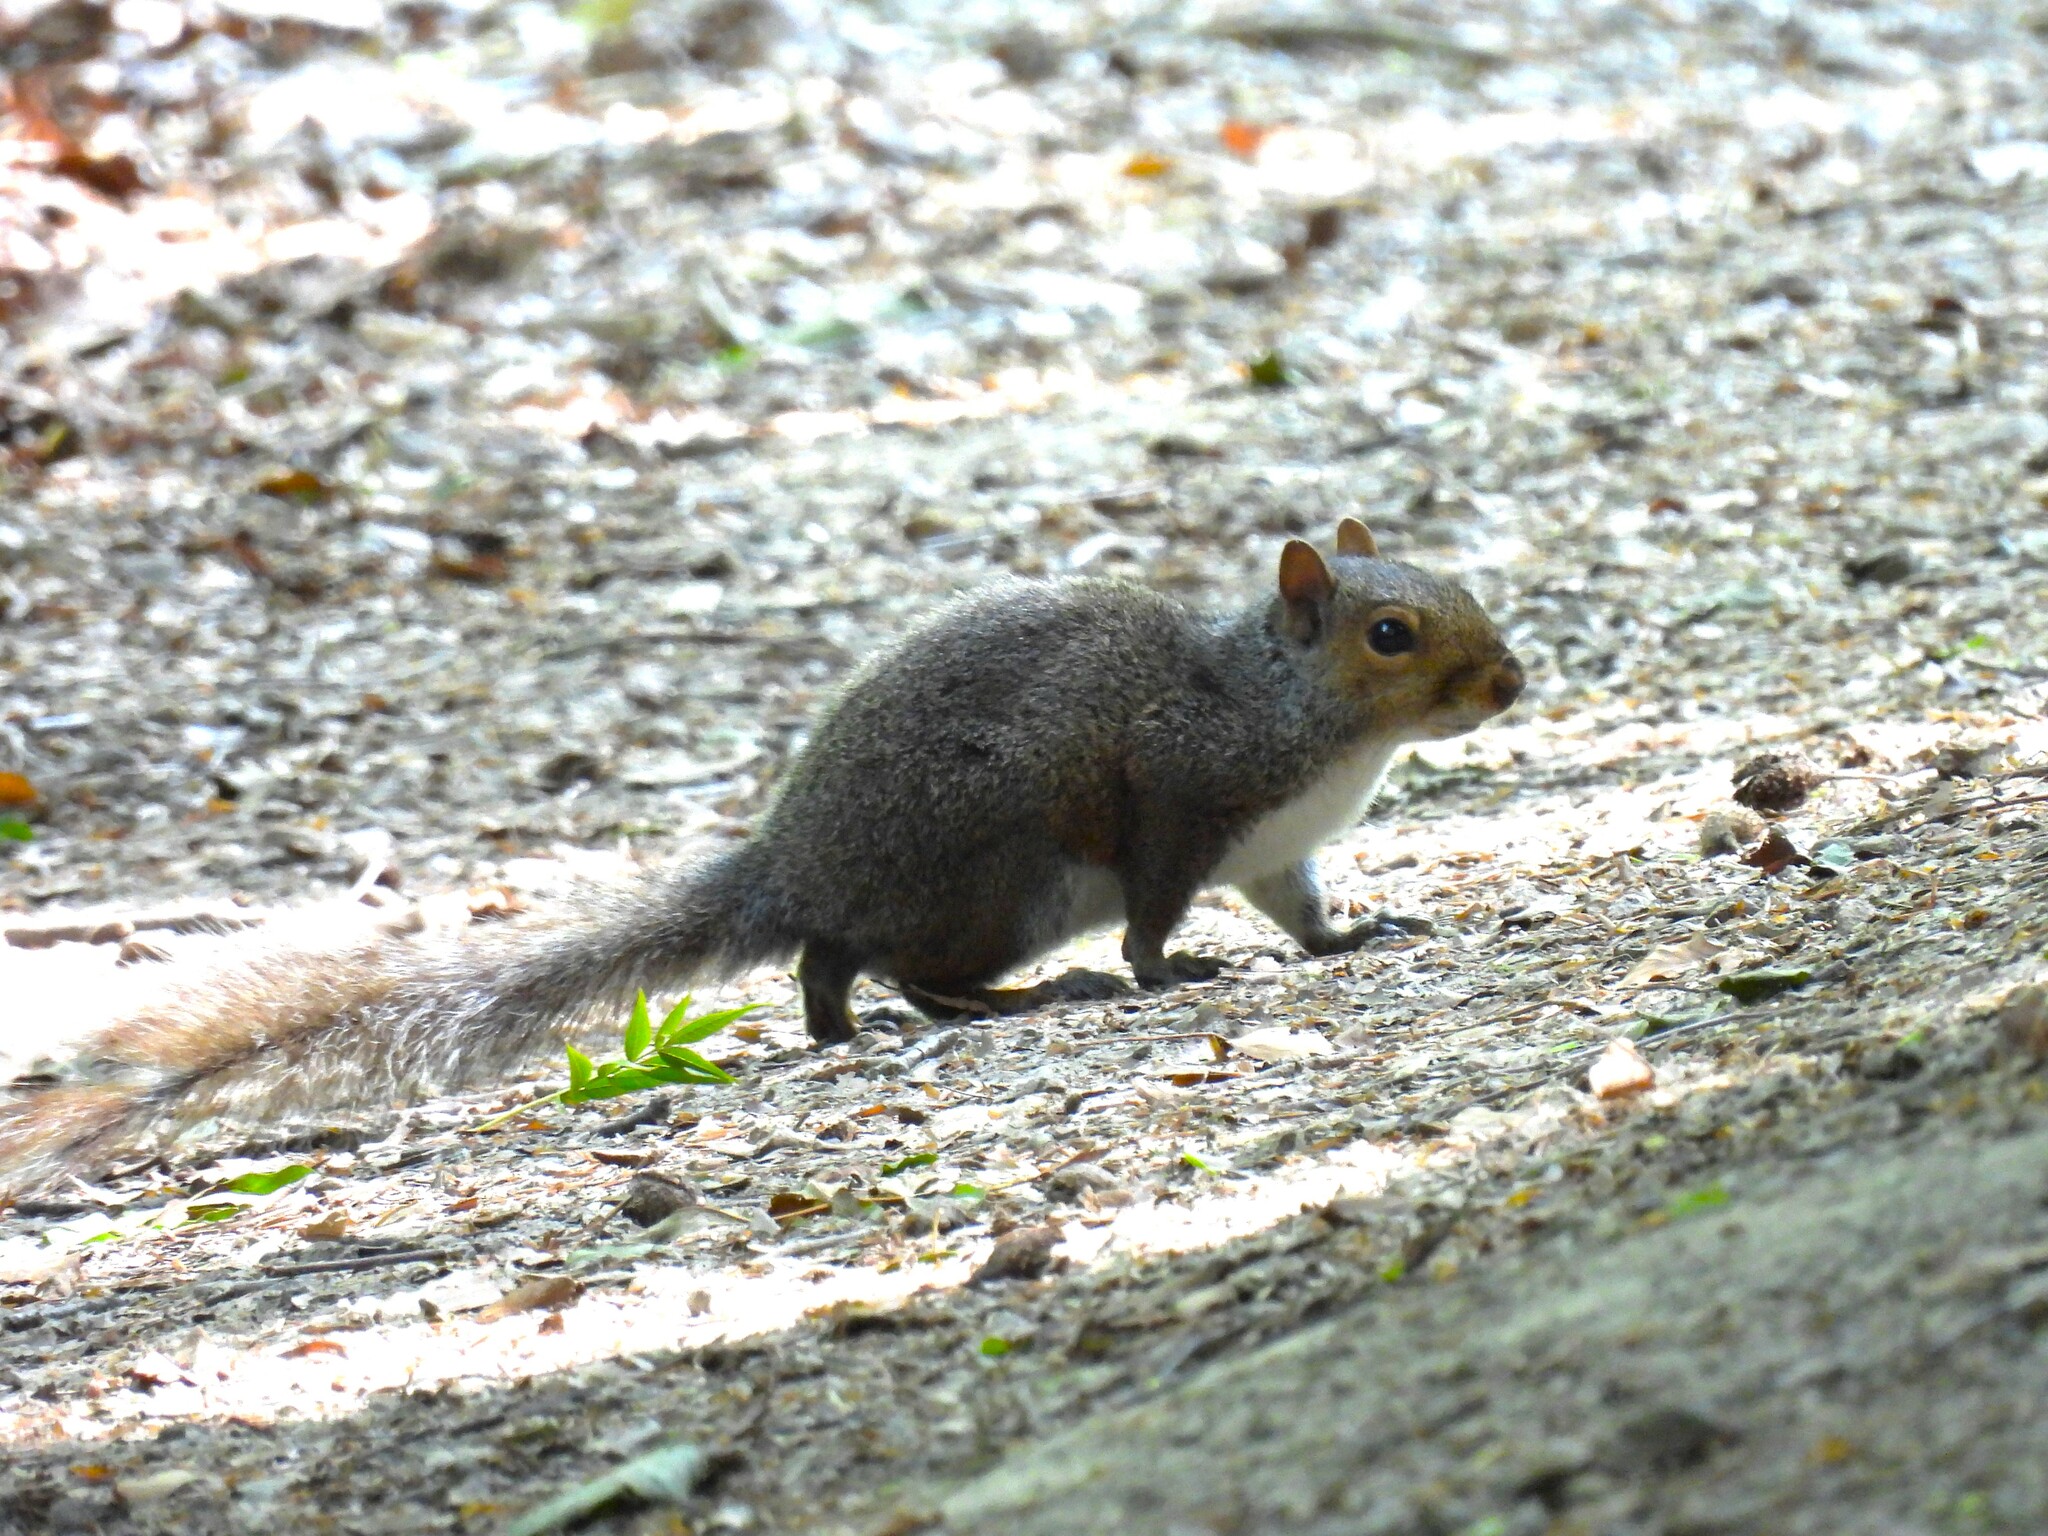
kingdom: Animalia
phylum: Chordata
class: Mammalia
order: Rodentia
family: Sciuridae
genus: Sciurus
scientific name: Sciurus carolinensis
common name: Eastern gray squirrel
